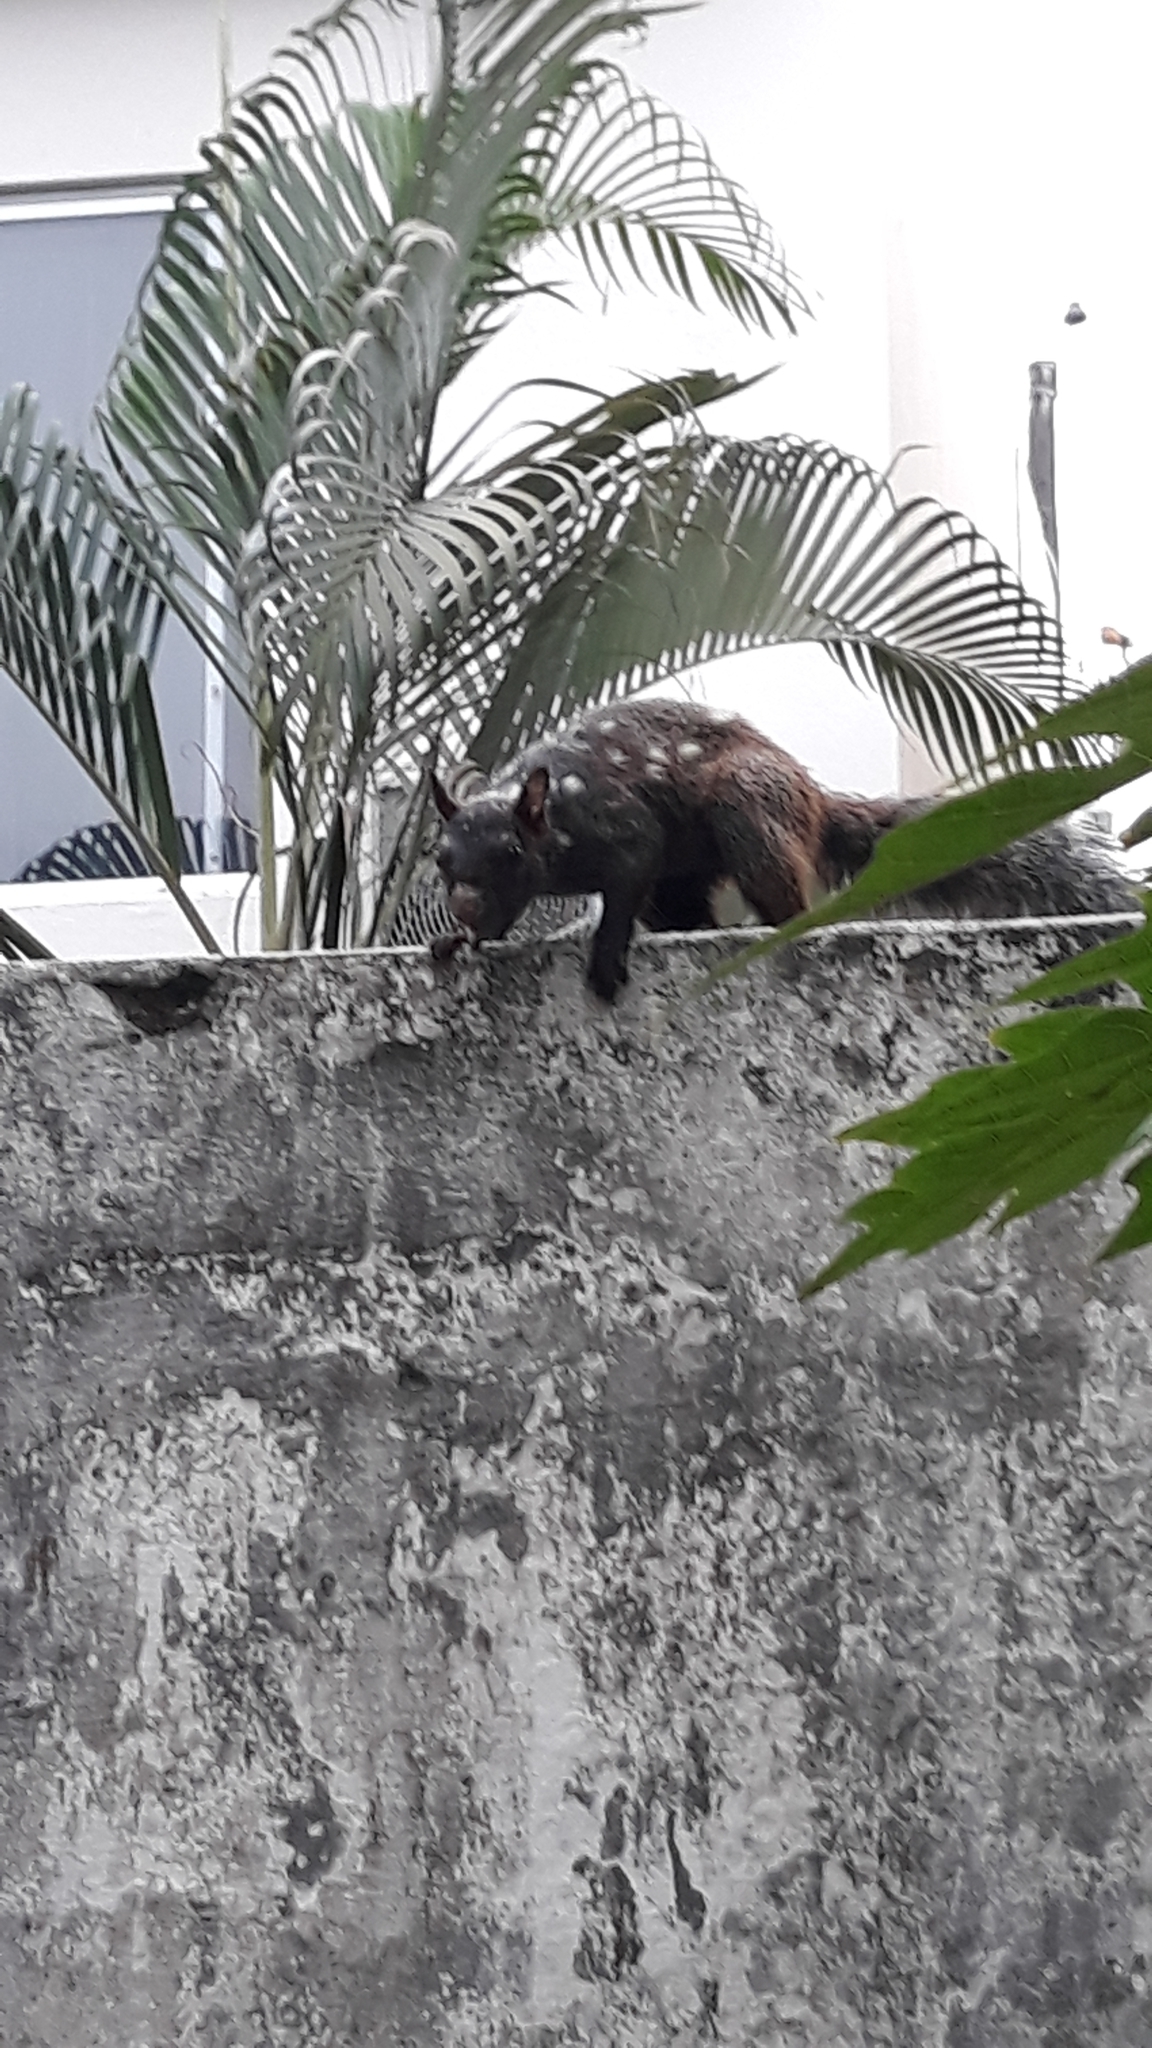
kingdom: Animalia
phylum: Chordata
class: Mammalia
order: Rodentia
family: Sciuridae
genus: Sciurus
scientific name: Sciurus stramineus
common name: Guayaquil squirrel
